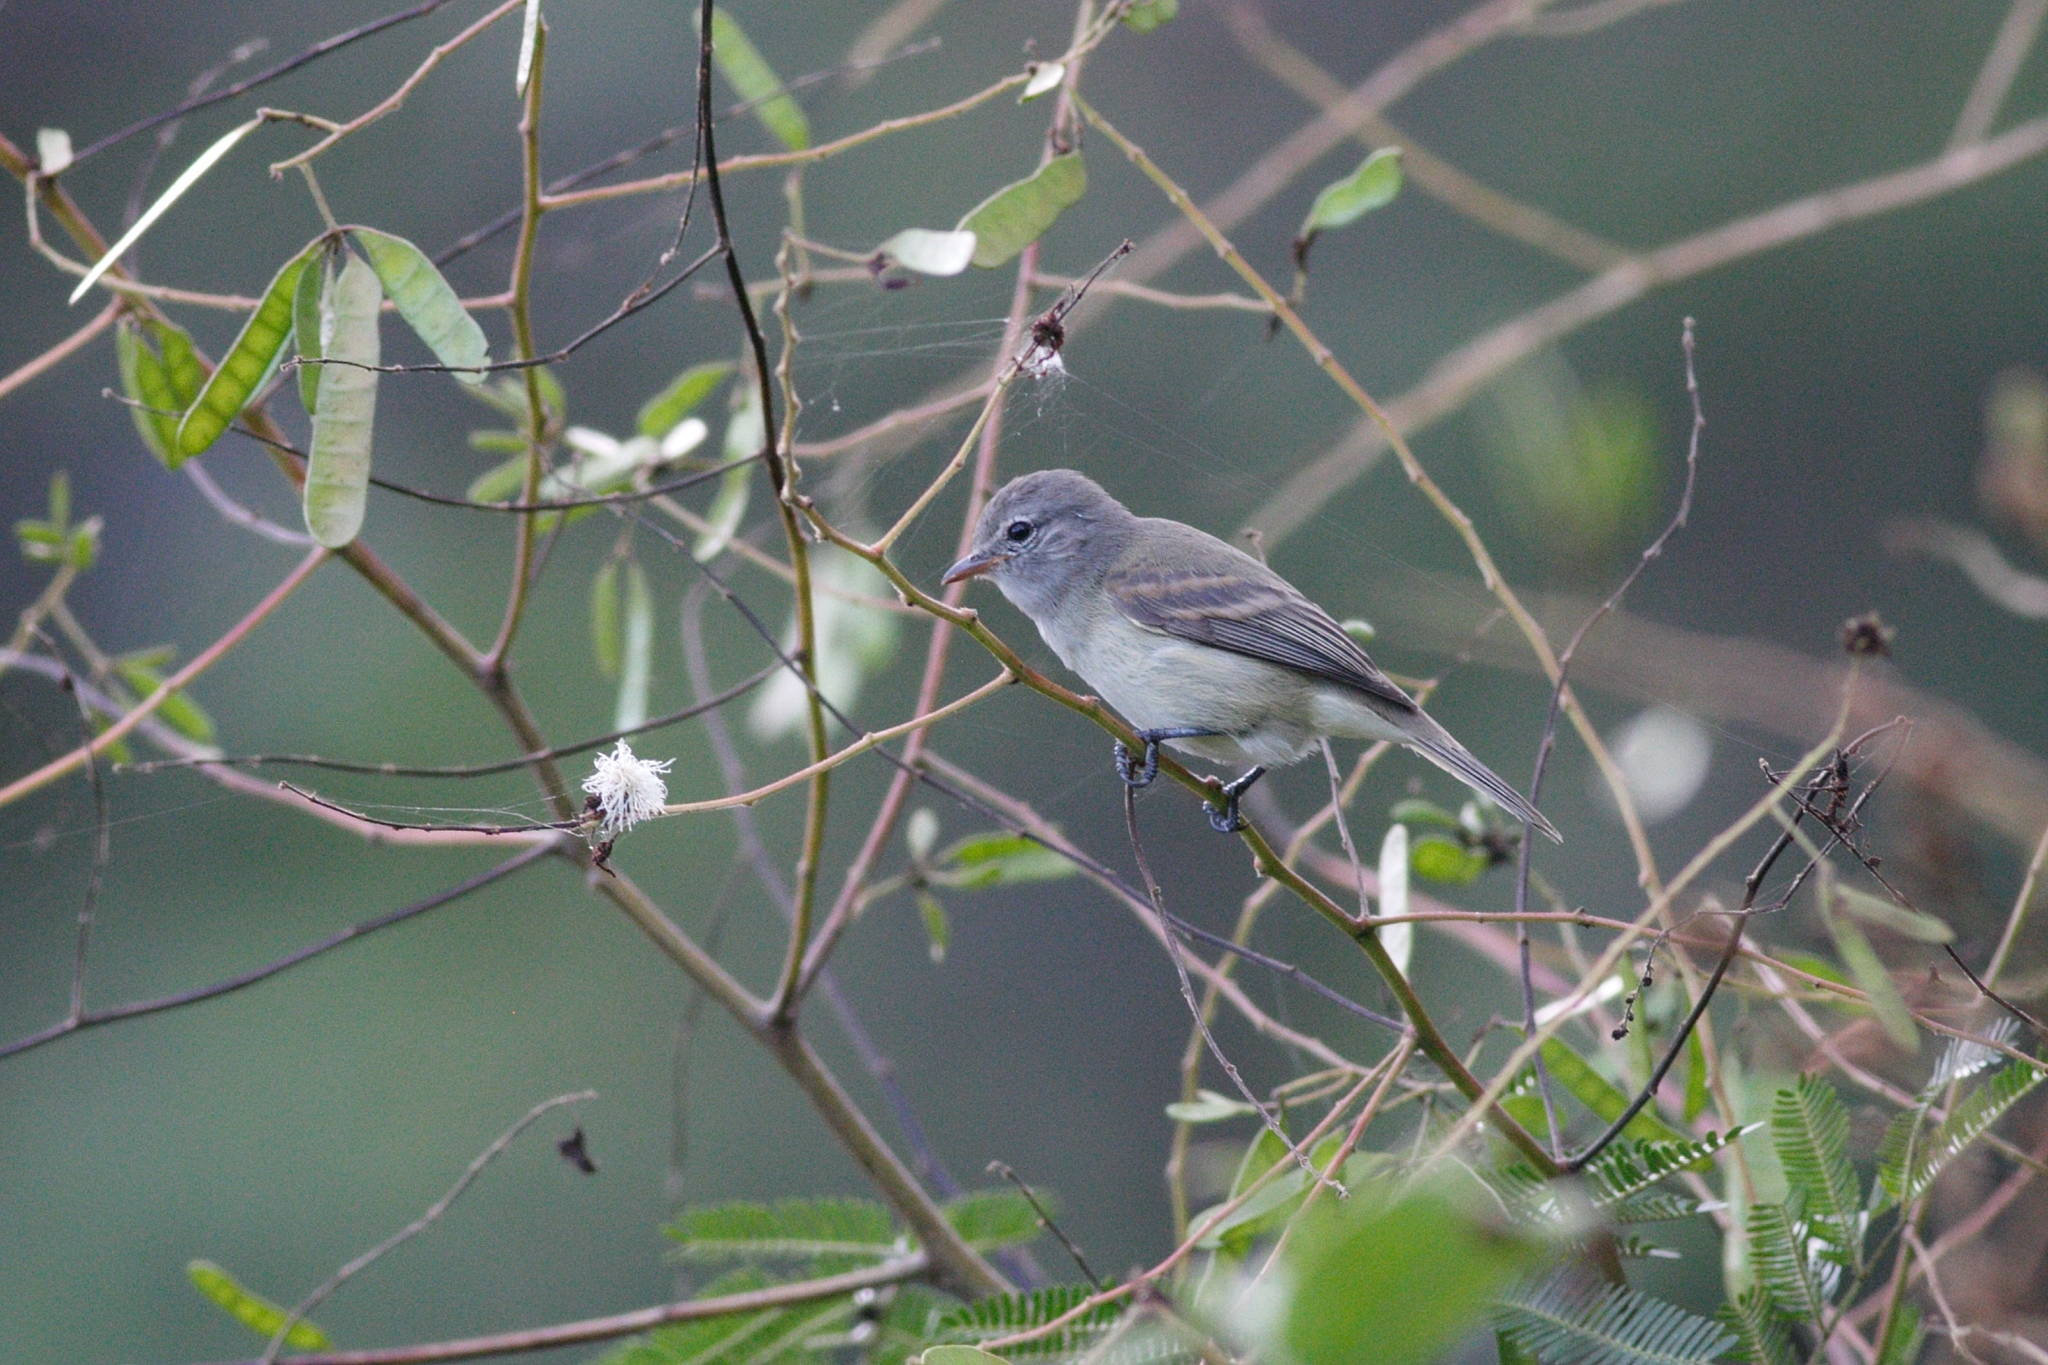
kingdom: Animalia
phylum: Chordata
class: Aves
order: Passeriformes
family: Tyrannidae
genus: Camptostoma
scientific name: Camptostoma obsoletum
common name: Southern beardless-tyrannulet
